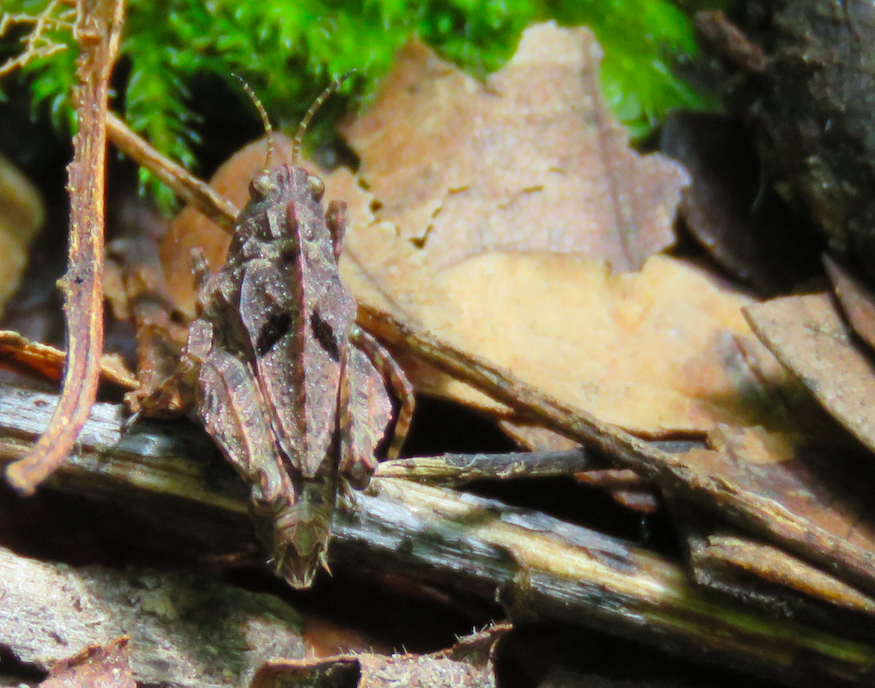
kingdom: Animalia
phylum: Arthropoda
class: Insecta
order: Orthoptera
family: Tetrigidae
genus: Tetrix
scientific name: Tetrix transsylvanica
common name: Transsylvanian wingless groundhopper
